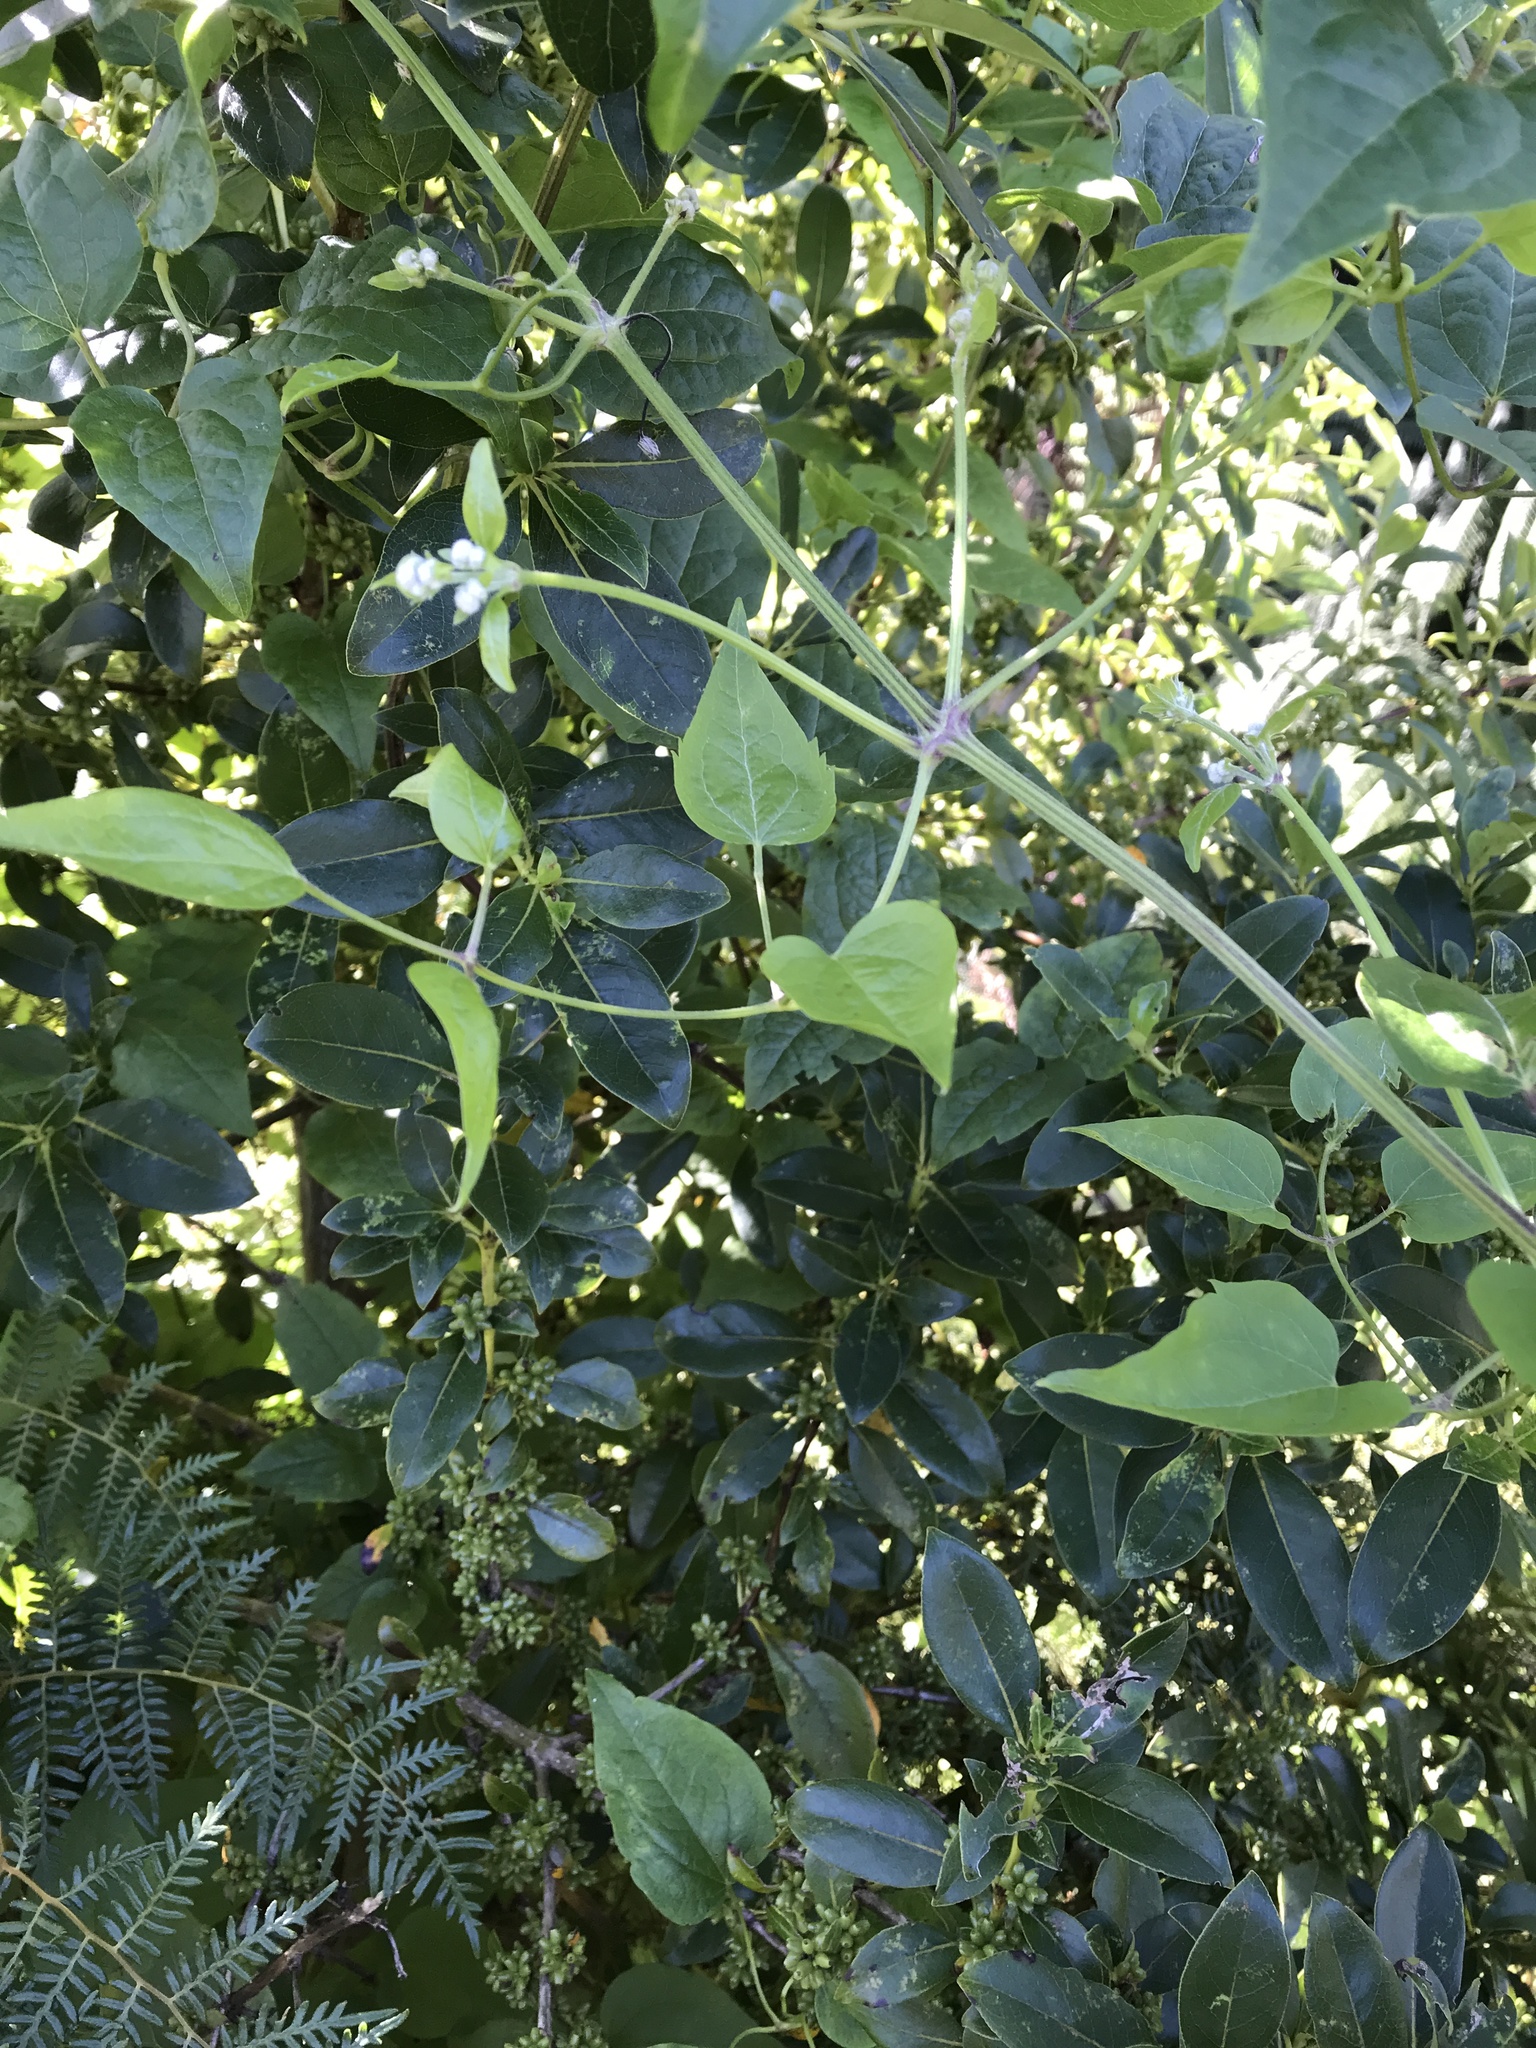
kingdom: Plantae
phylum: Tracheophyta
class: Magnoliopsida
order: Ranunculales
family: Ranunculaceae
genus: Clematis
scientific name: Clematis vitalba
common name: Evergreen clematis
